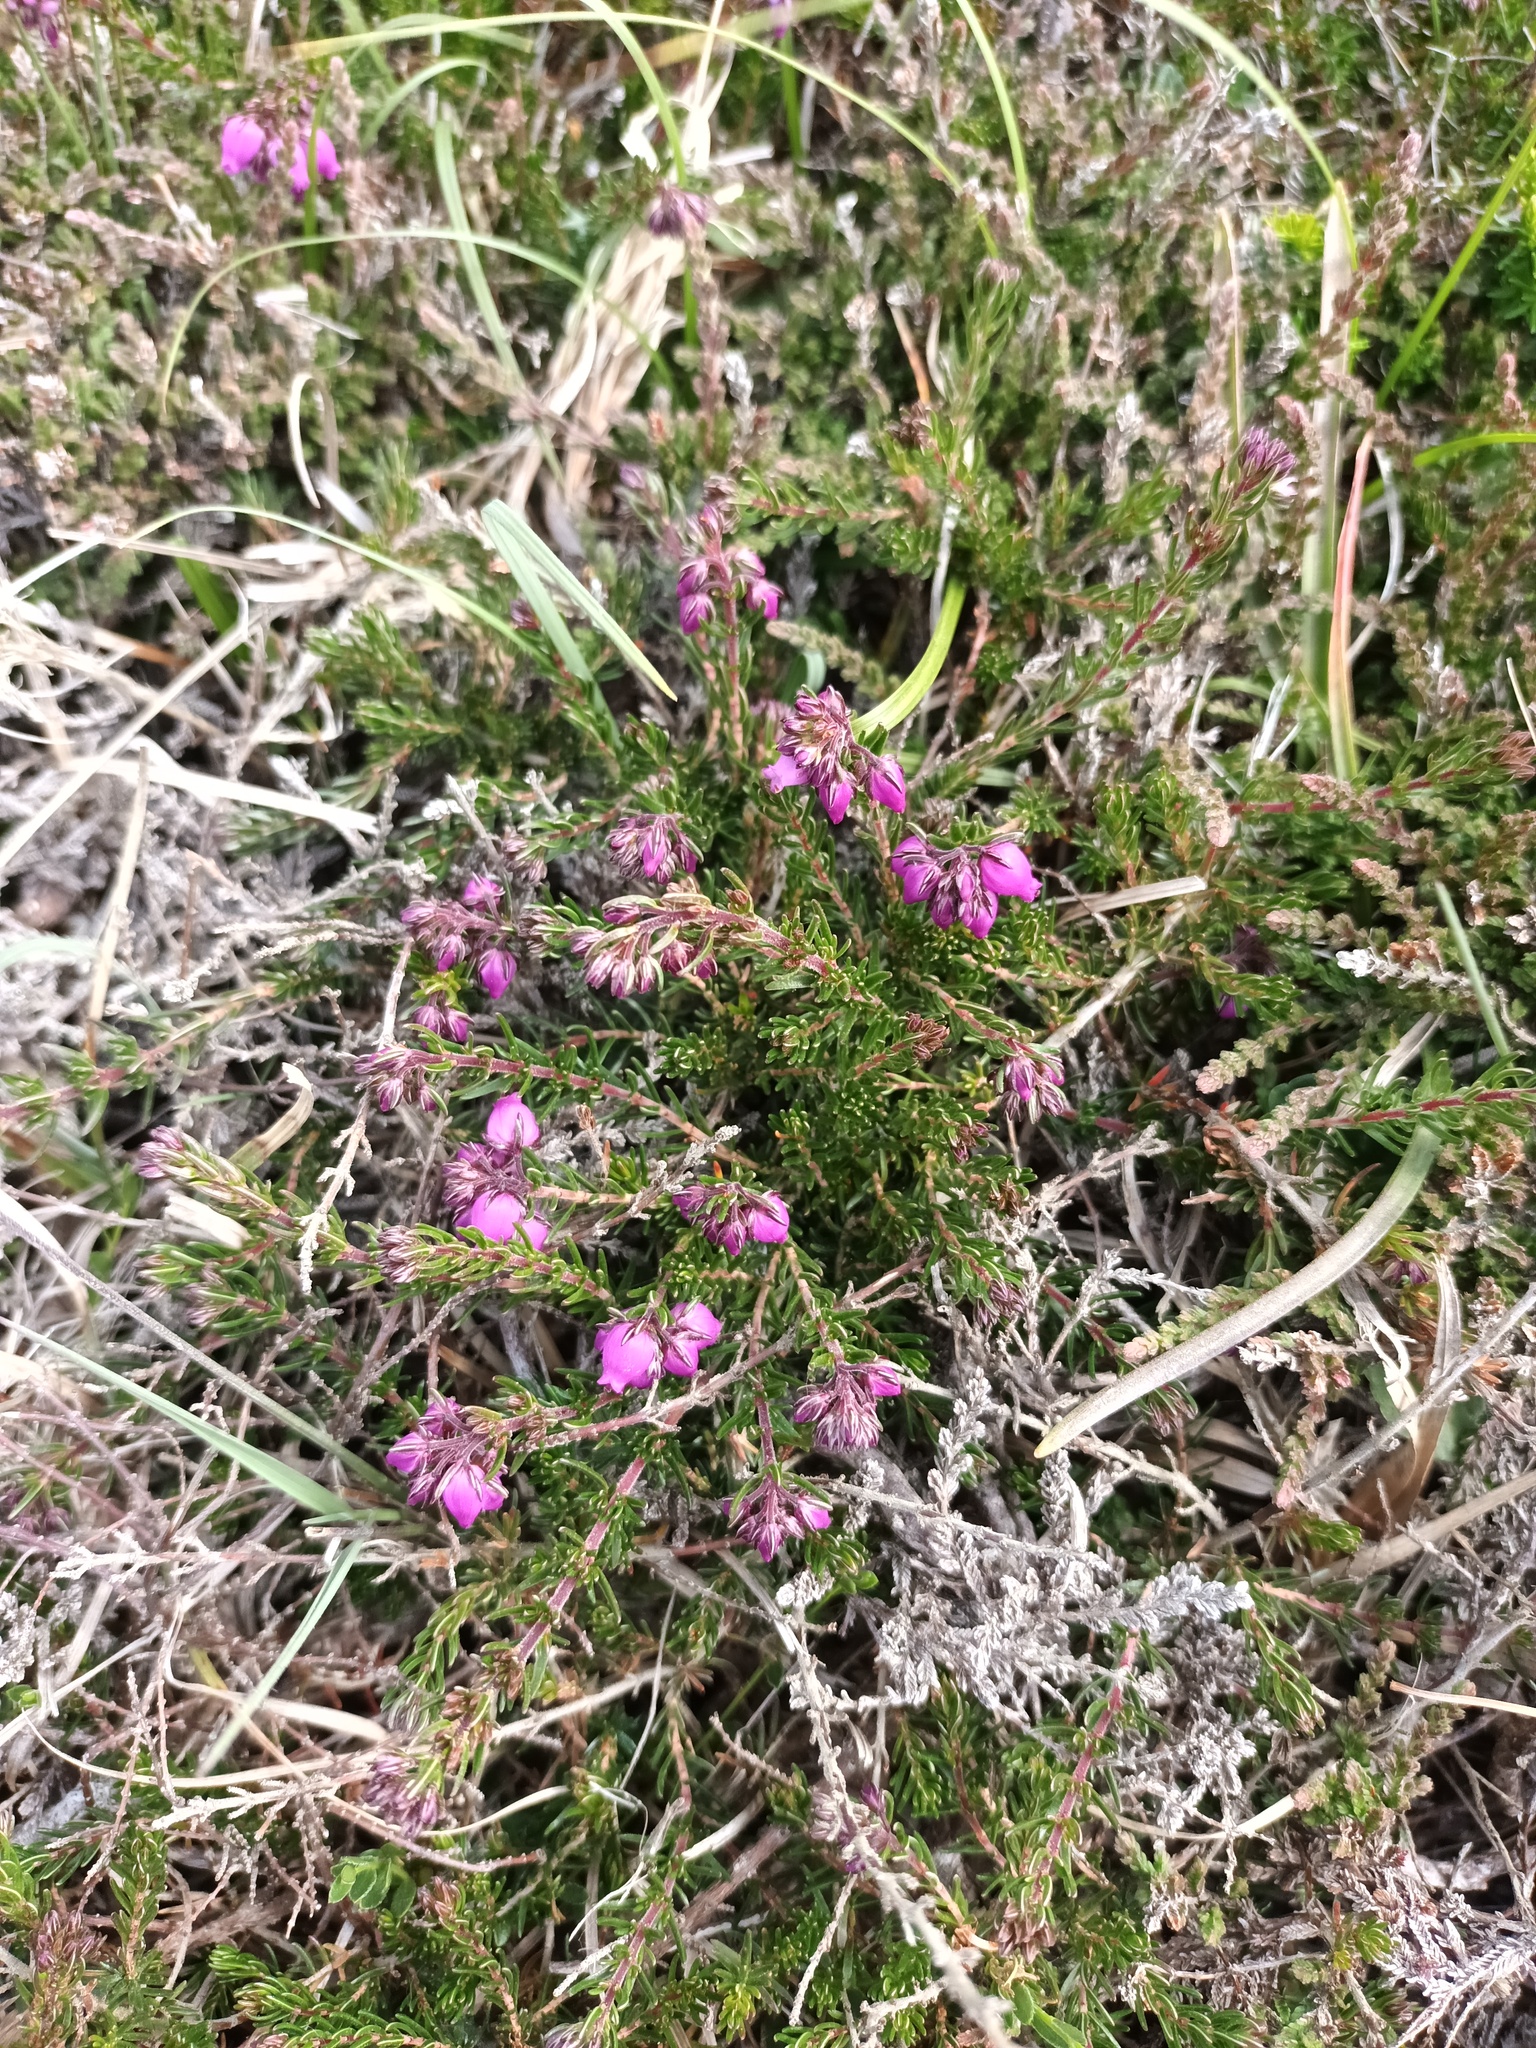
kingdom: Plantae
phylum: Tracheophyta
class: Magnoliopsida
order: Ericales
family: Ericaceae
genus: Erica
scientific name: Erica cinerea
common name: Bell heather
